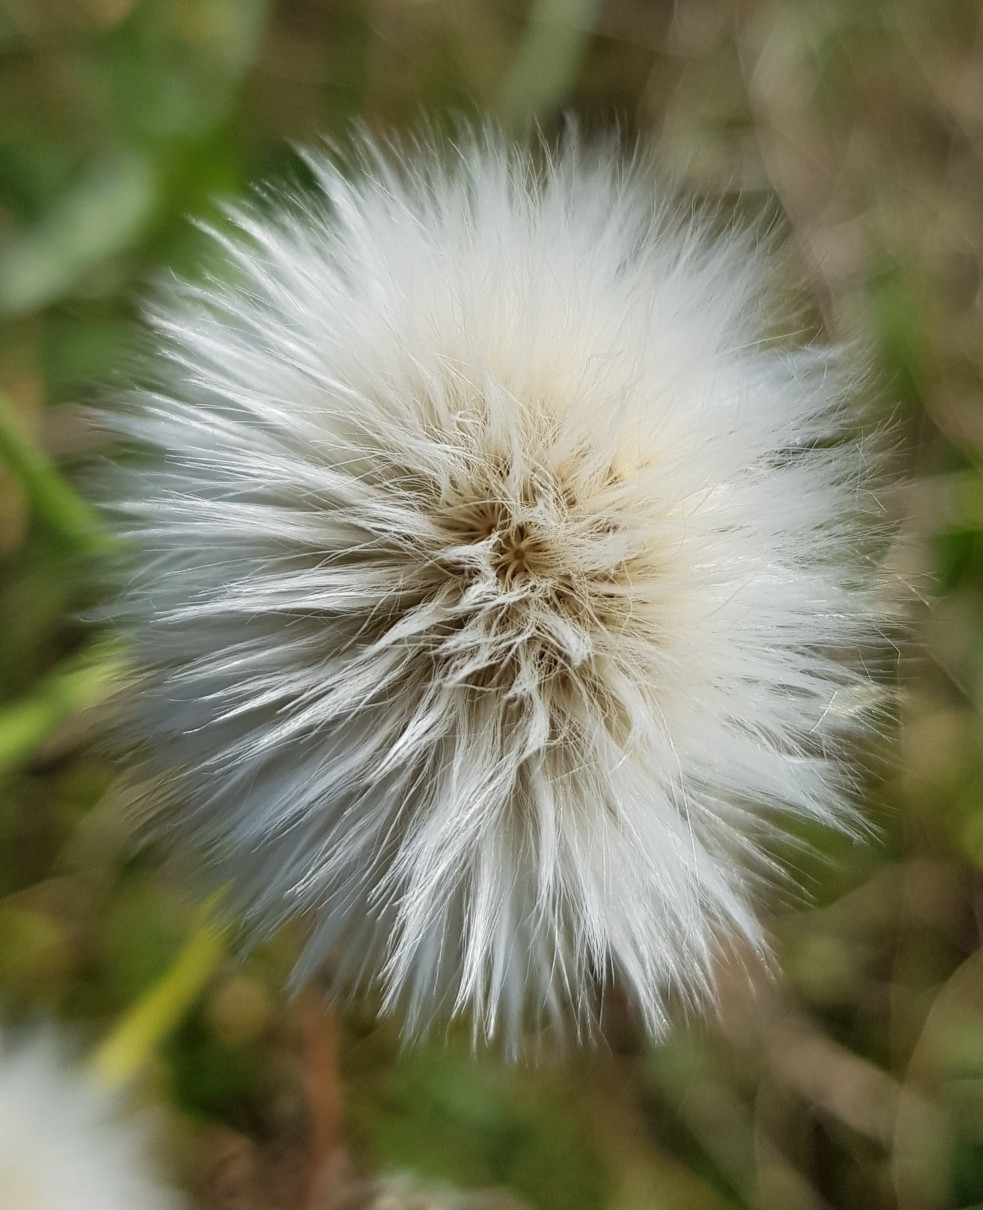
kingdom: Plantae
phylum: Tracheophyta
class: Magnoliopsida
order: Asterales
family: Asteraceae
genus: Sonchus
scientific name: Sonchus arvensis
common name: Perennial sow-thistle
